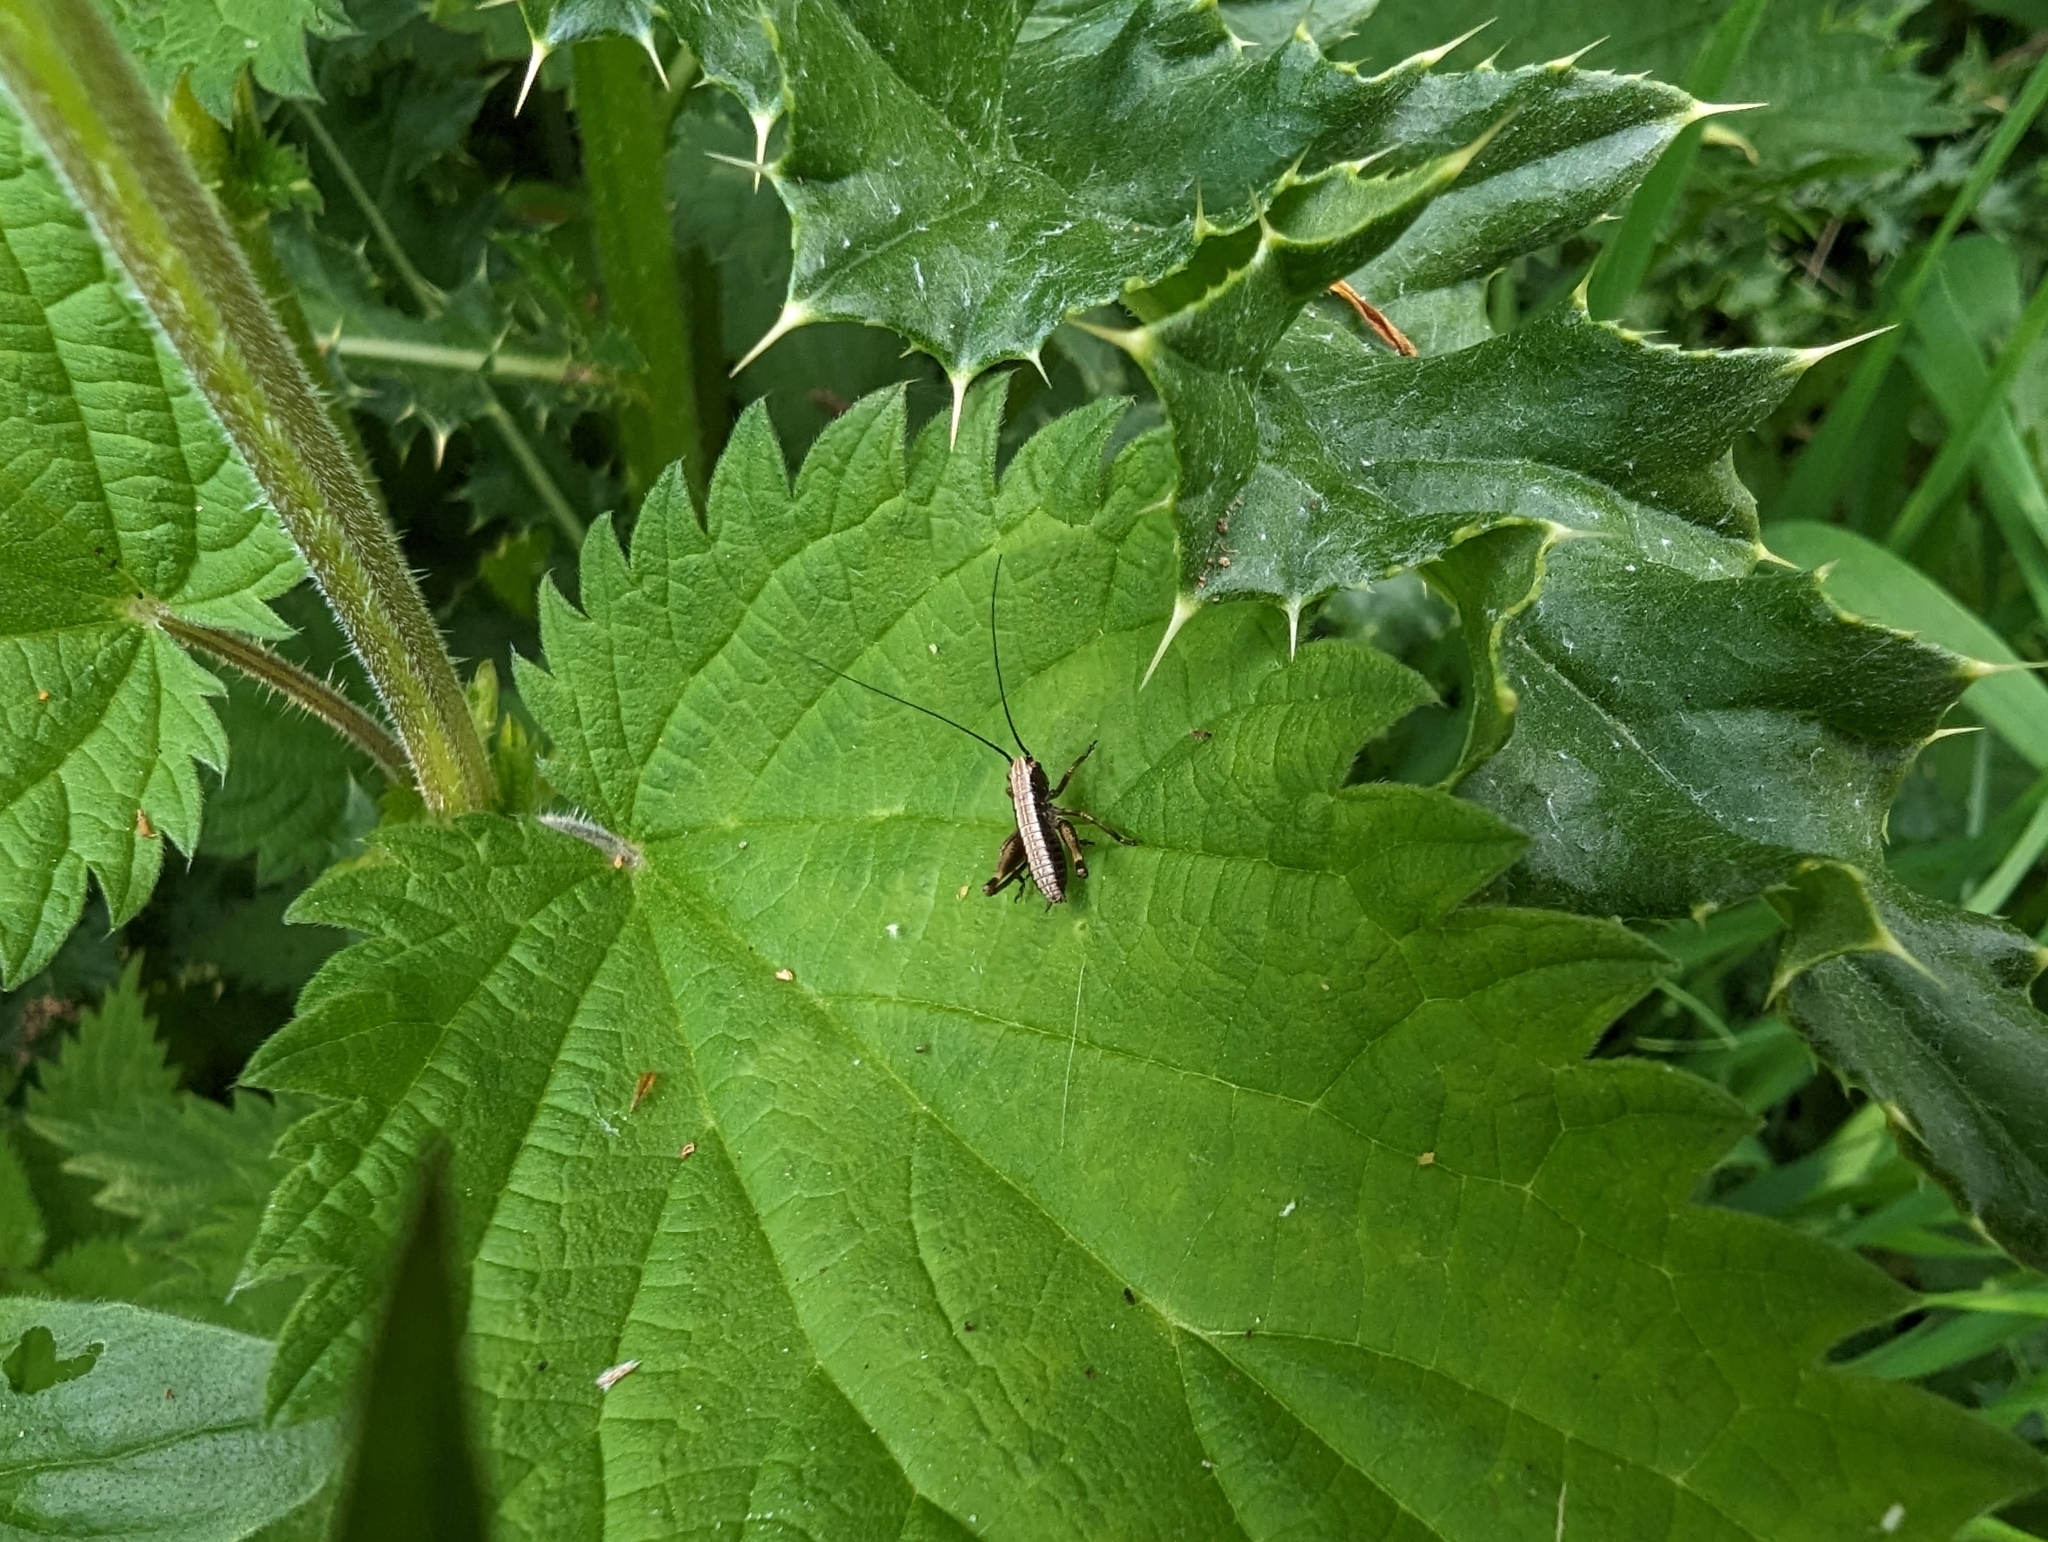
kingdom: Animalia
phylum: Arthropoda
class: Insecta
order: Orthoptera
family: Tettigoniidae
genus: Pholidoptera
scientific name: Pholidoptera griseoaptera
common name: Dark bush-cricket
